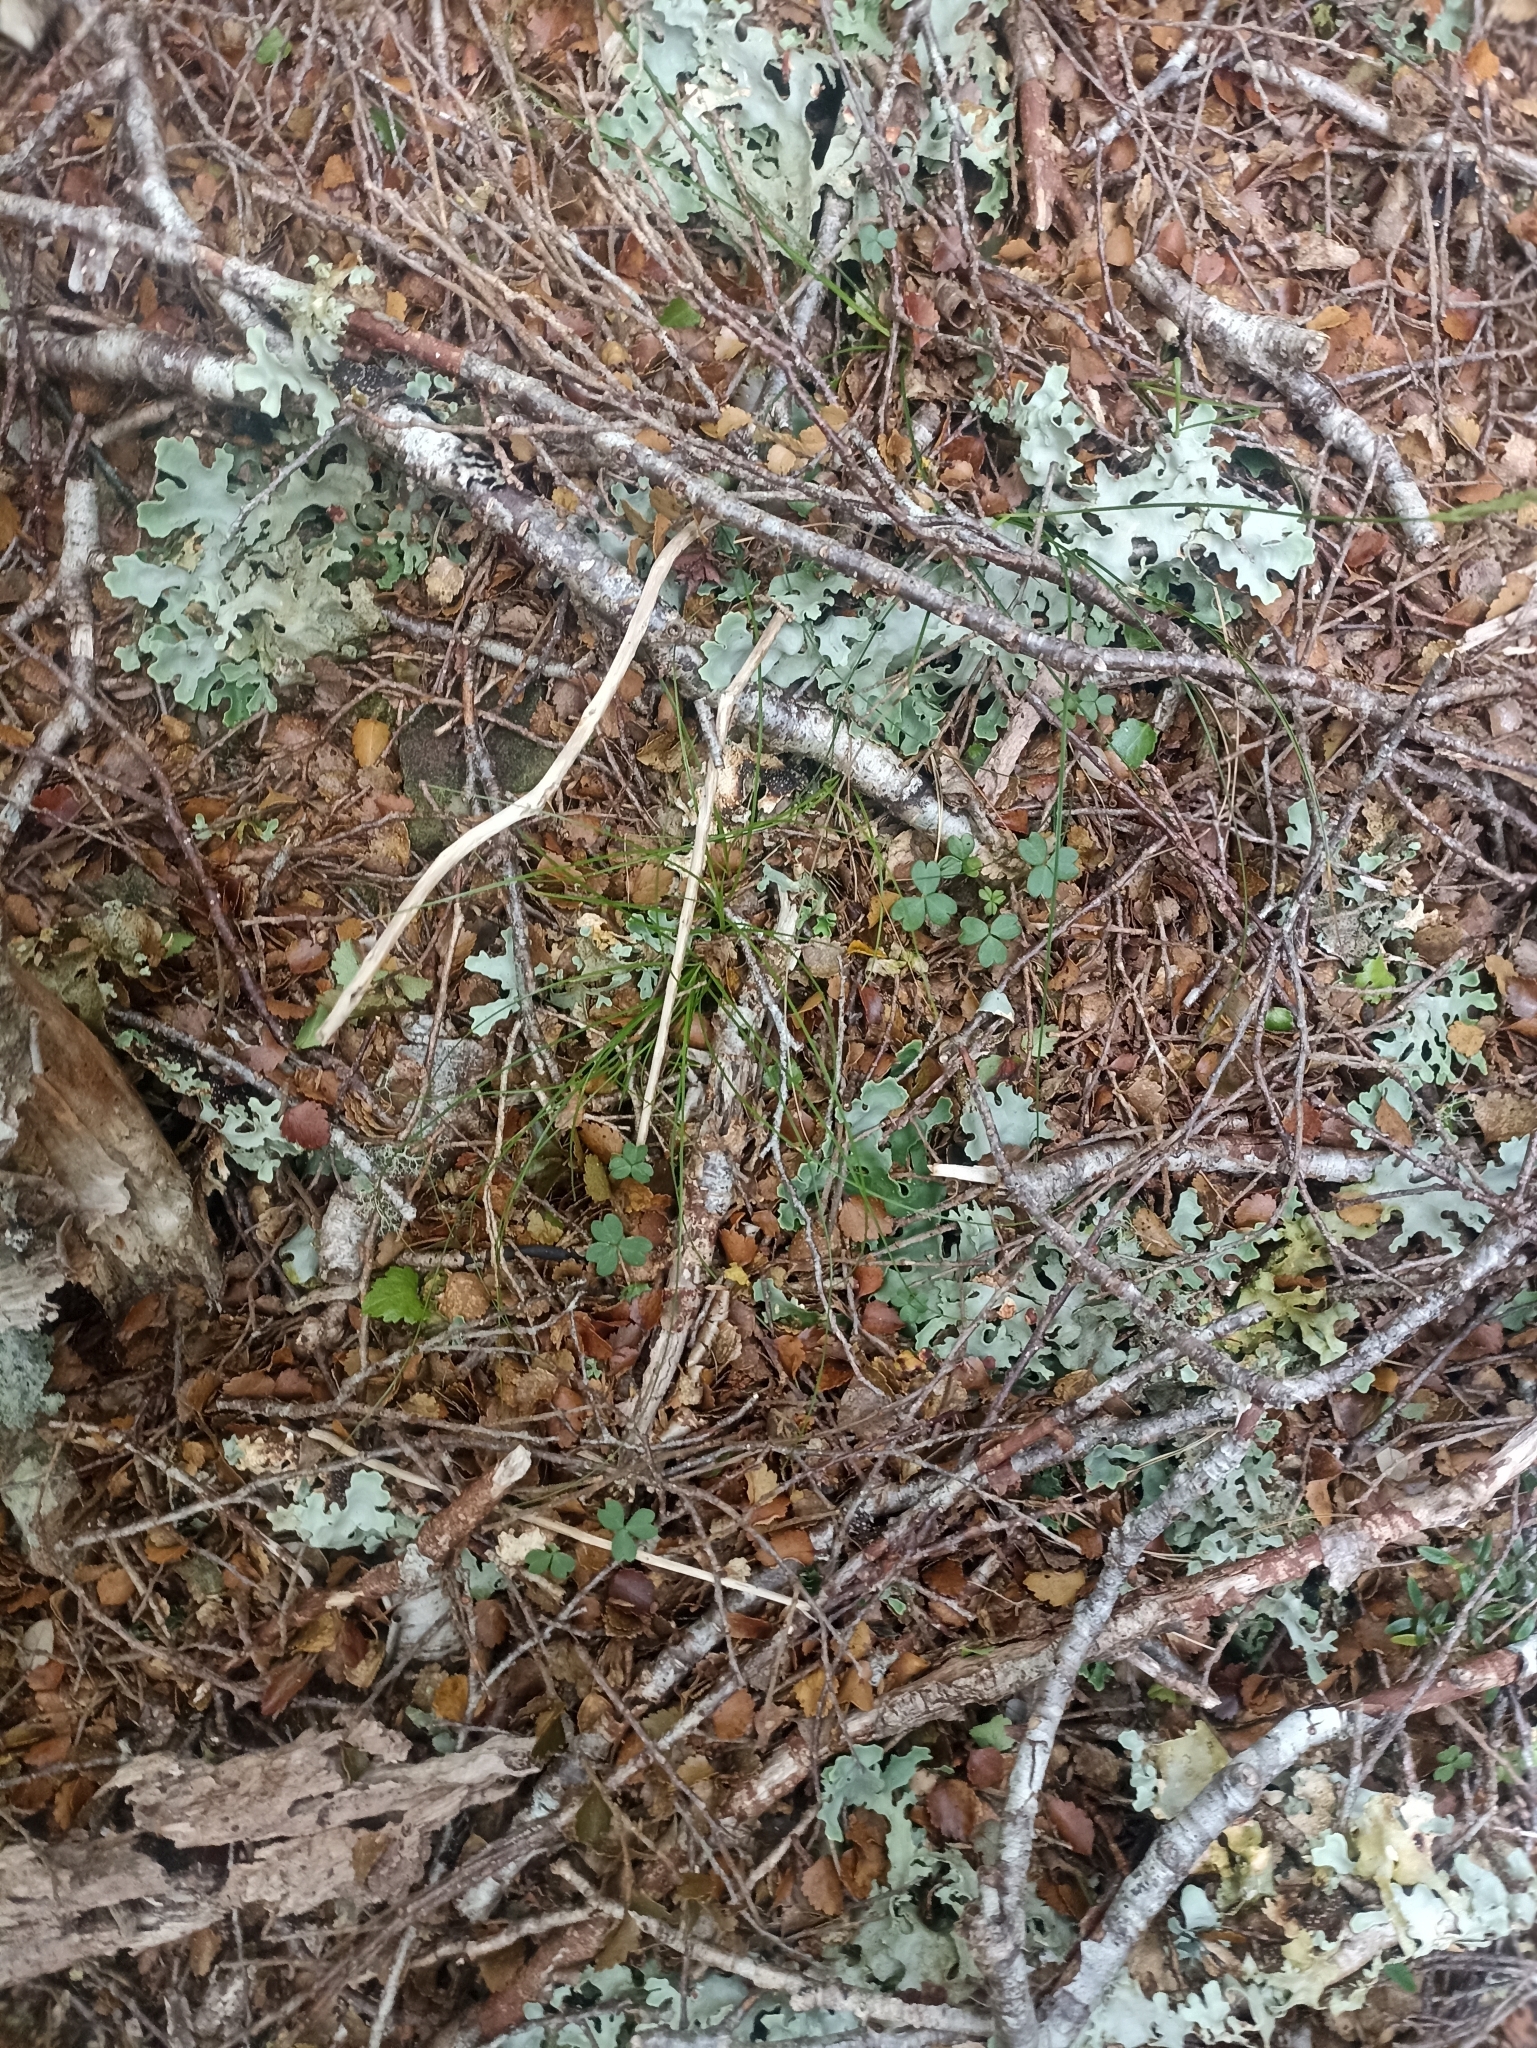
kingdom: Plantae
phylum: Tracheophyta
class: Magnoliopsida
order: Oxalidales
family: Oxalidaceae
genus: Oxalis
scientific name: Oxalis magellanica
